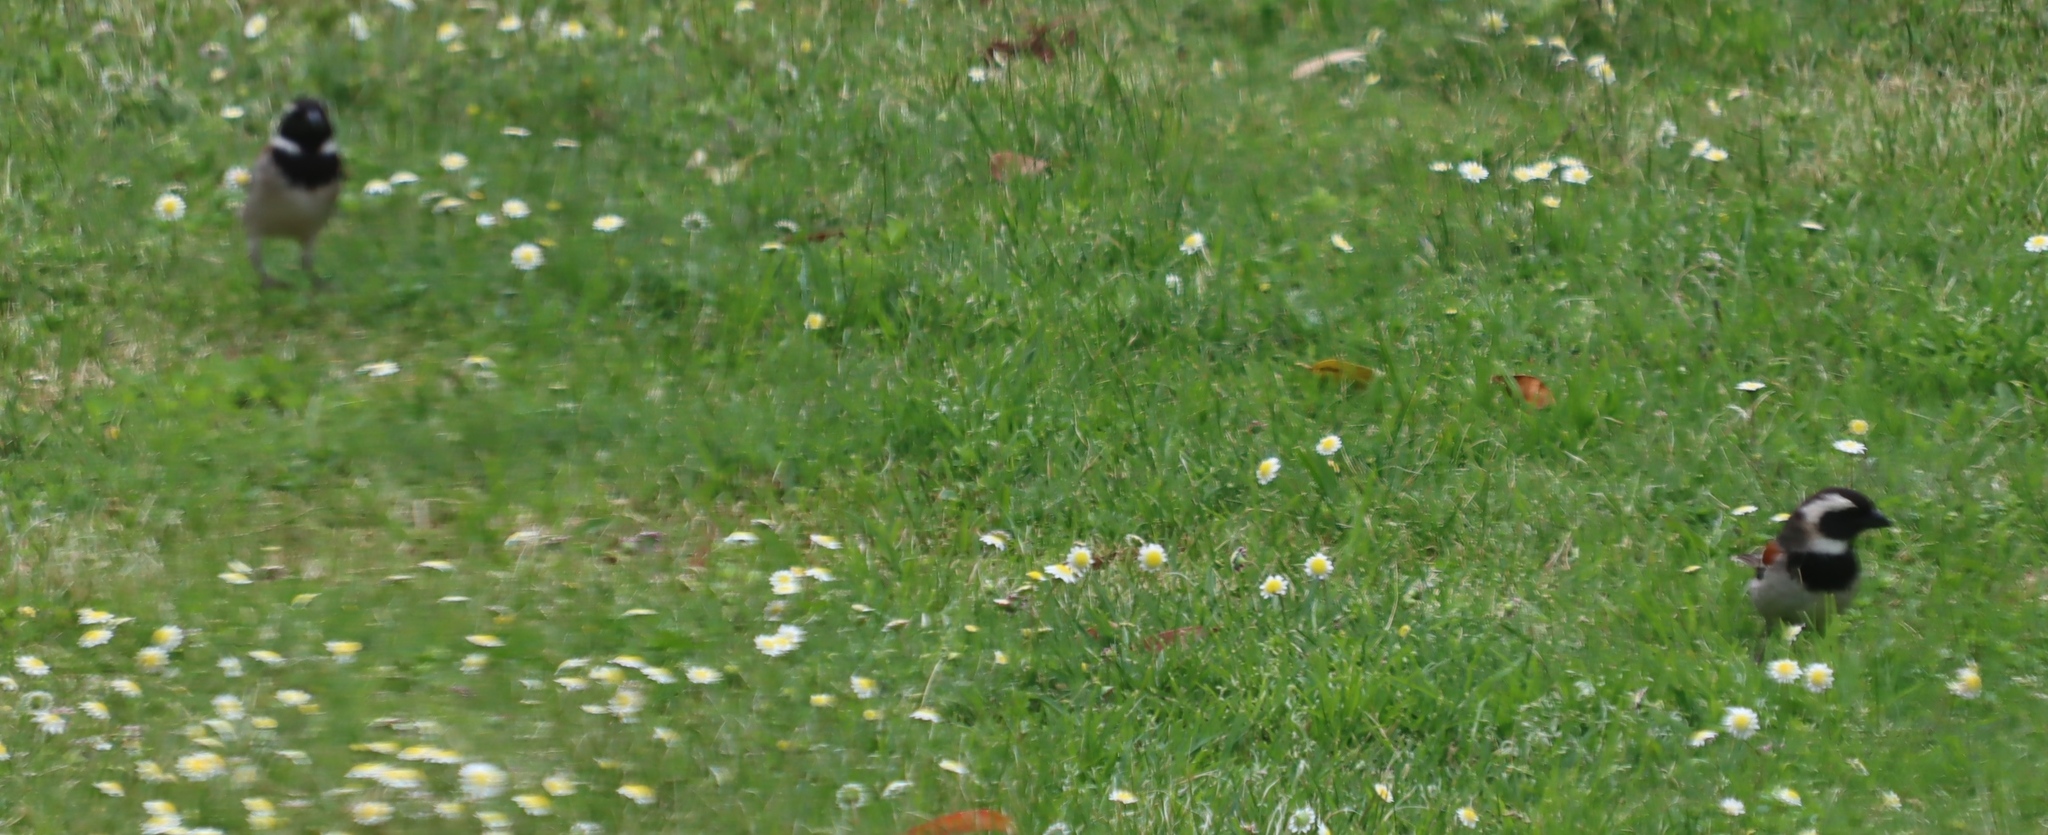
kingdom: Animalia
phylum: Chordata
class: Aves
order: Passeriformes
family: Passeridae
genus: Passer
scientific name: Passer melanurus
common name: Cape sparrow
